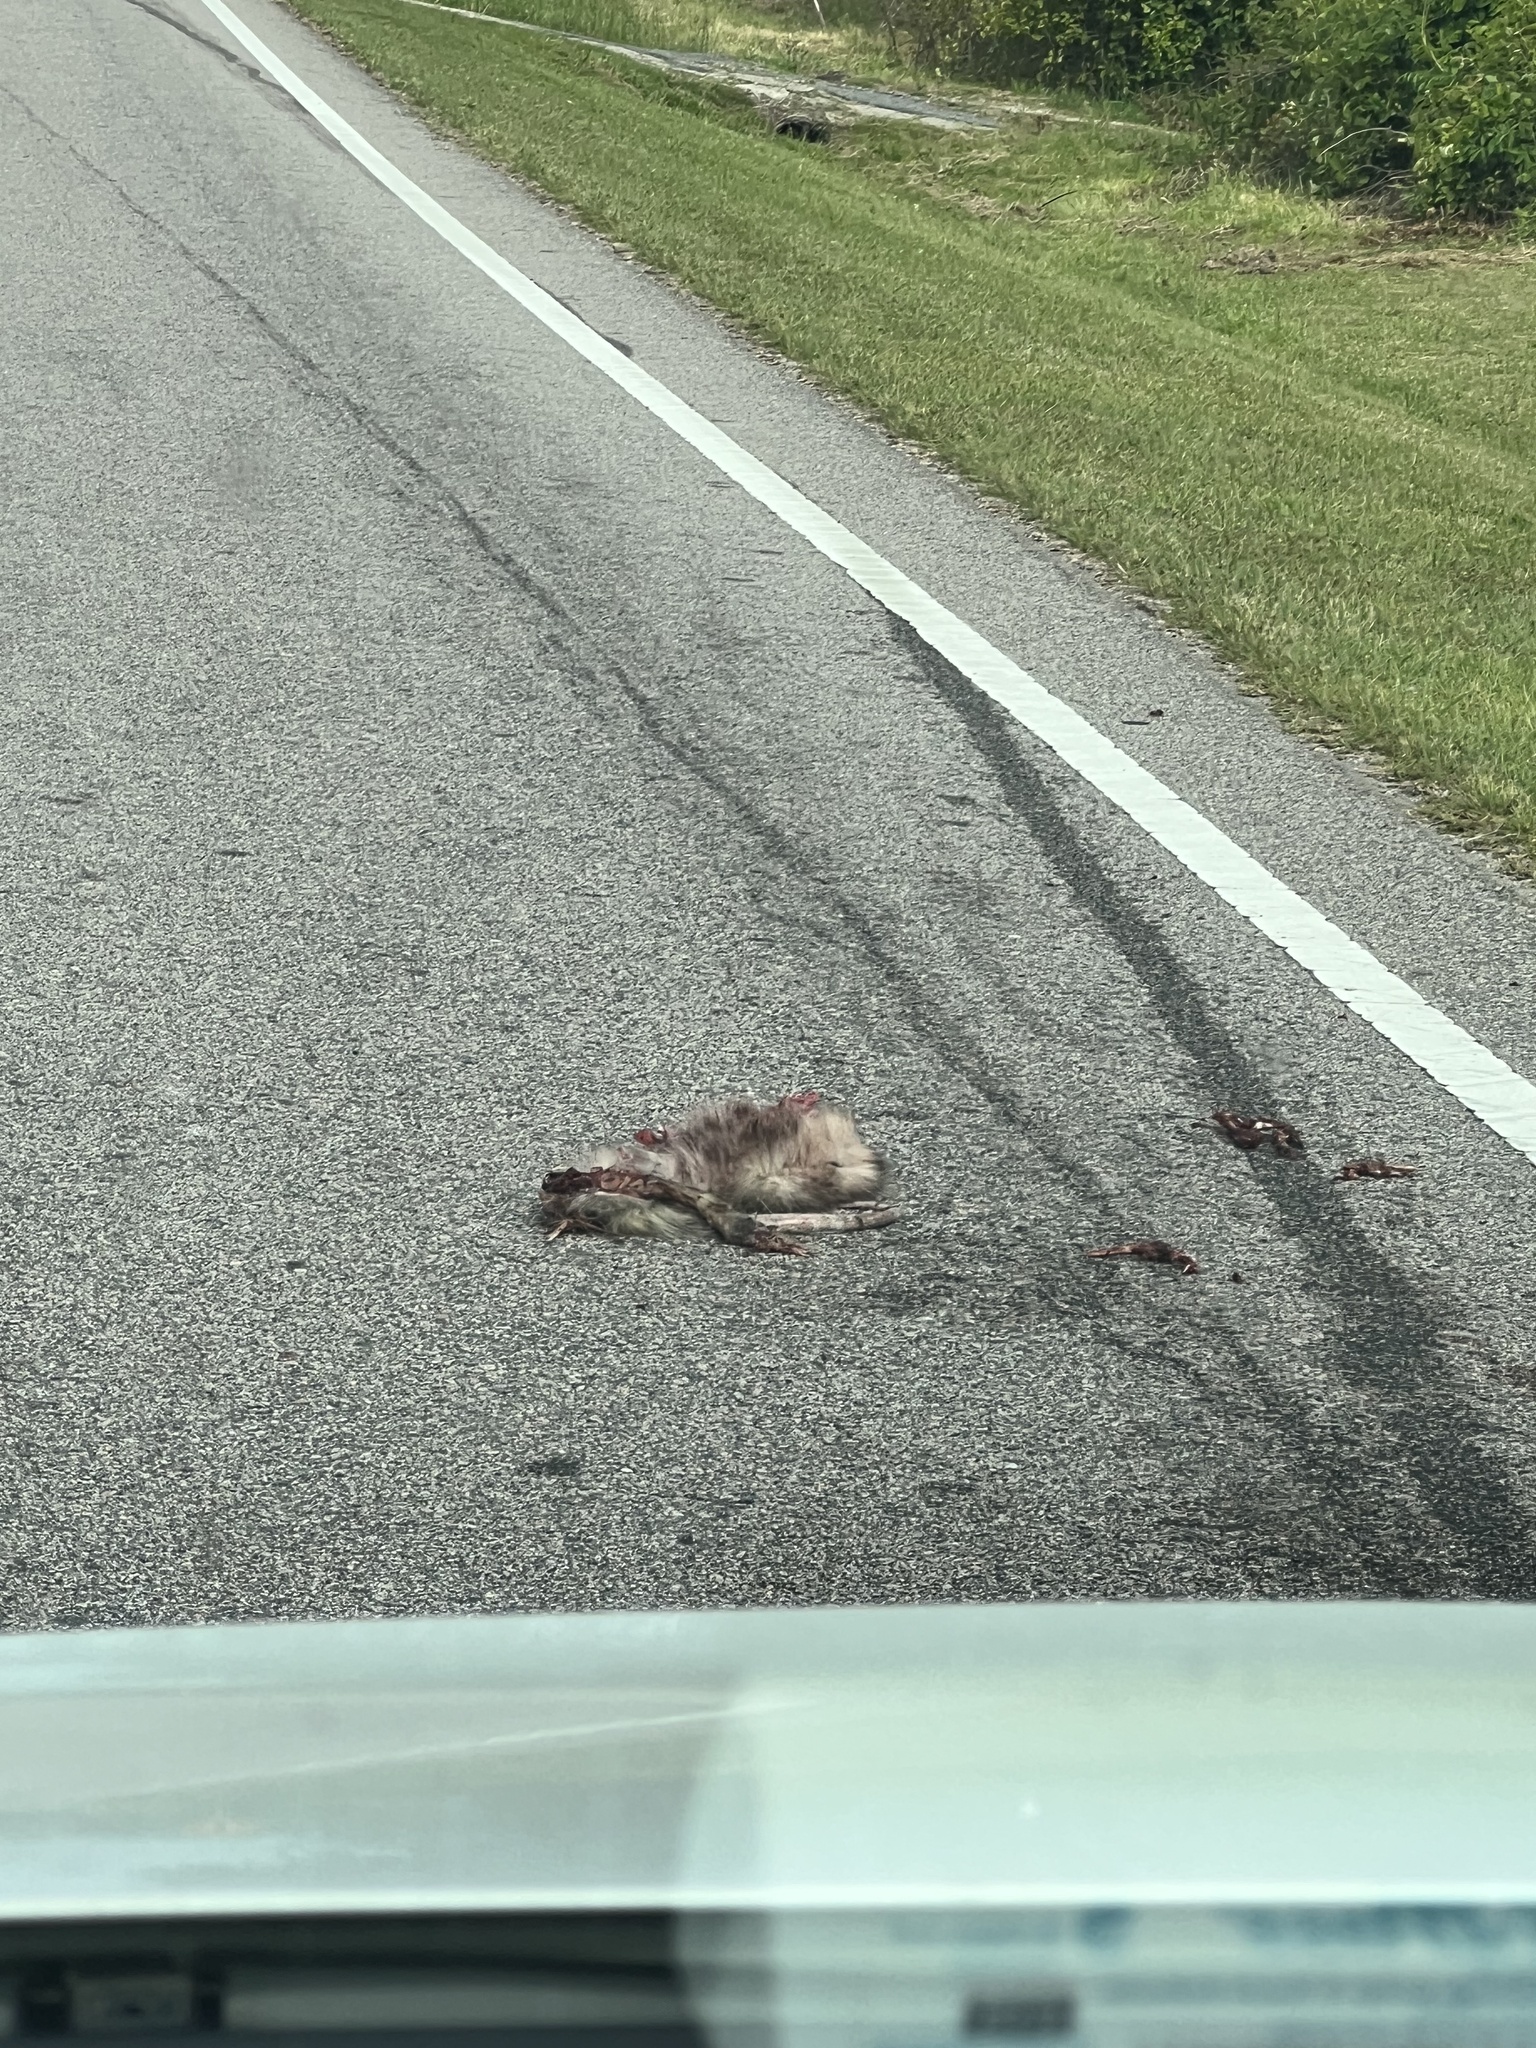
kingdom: Animalia
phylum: Chordata
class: Mammalia
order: Didelphimorphia
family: Didelphidae
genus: Didelphis
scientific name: Didelphis virginiana
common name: Virginia opossum
